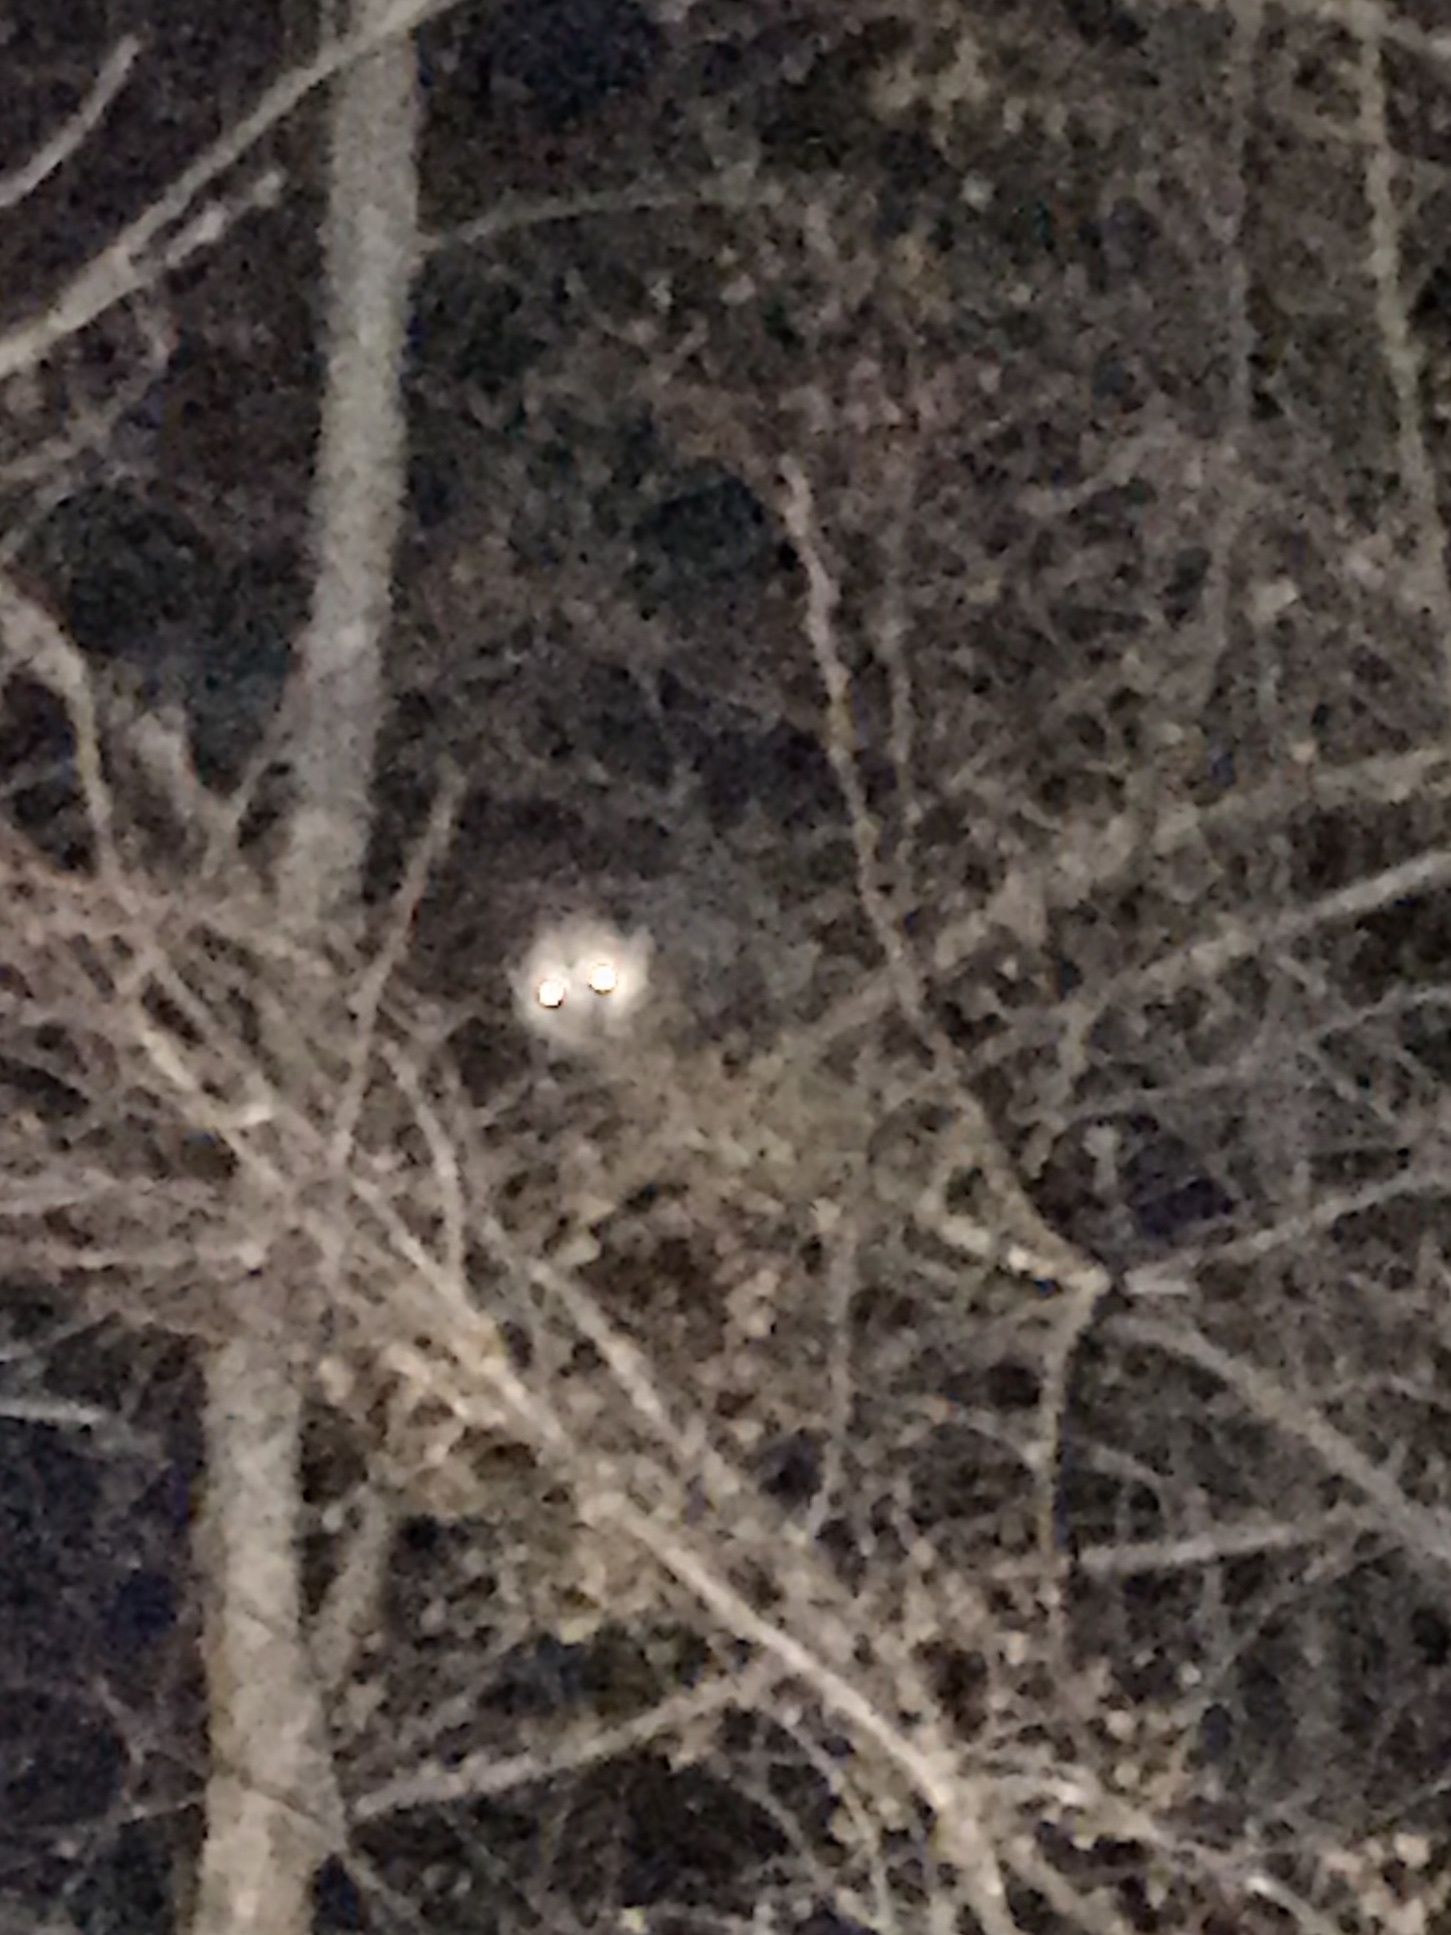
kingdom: Animalia
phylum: Chordata
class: Mammalia
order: Didelphimorphia
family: Didelphidae
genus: Didelphis
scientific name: Didelphis virginiana
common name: Virginia opossum
